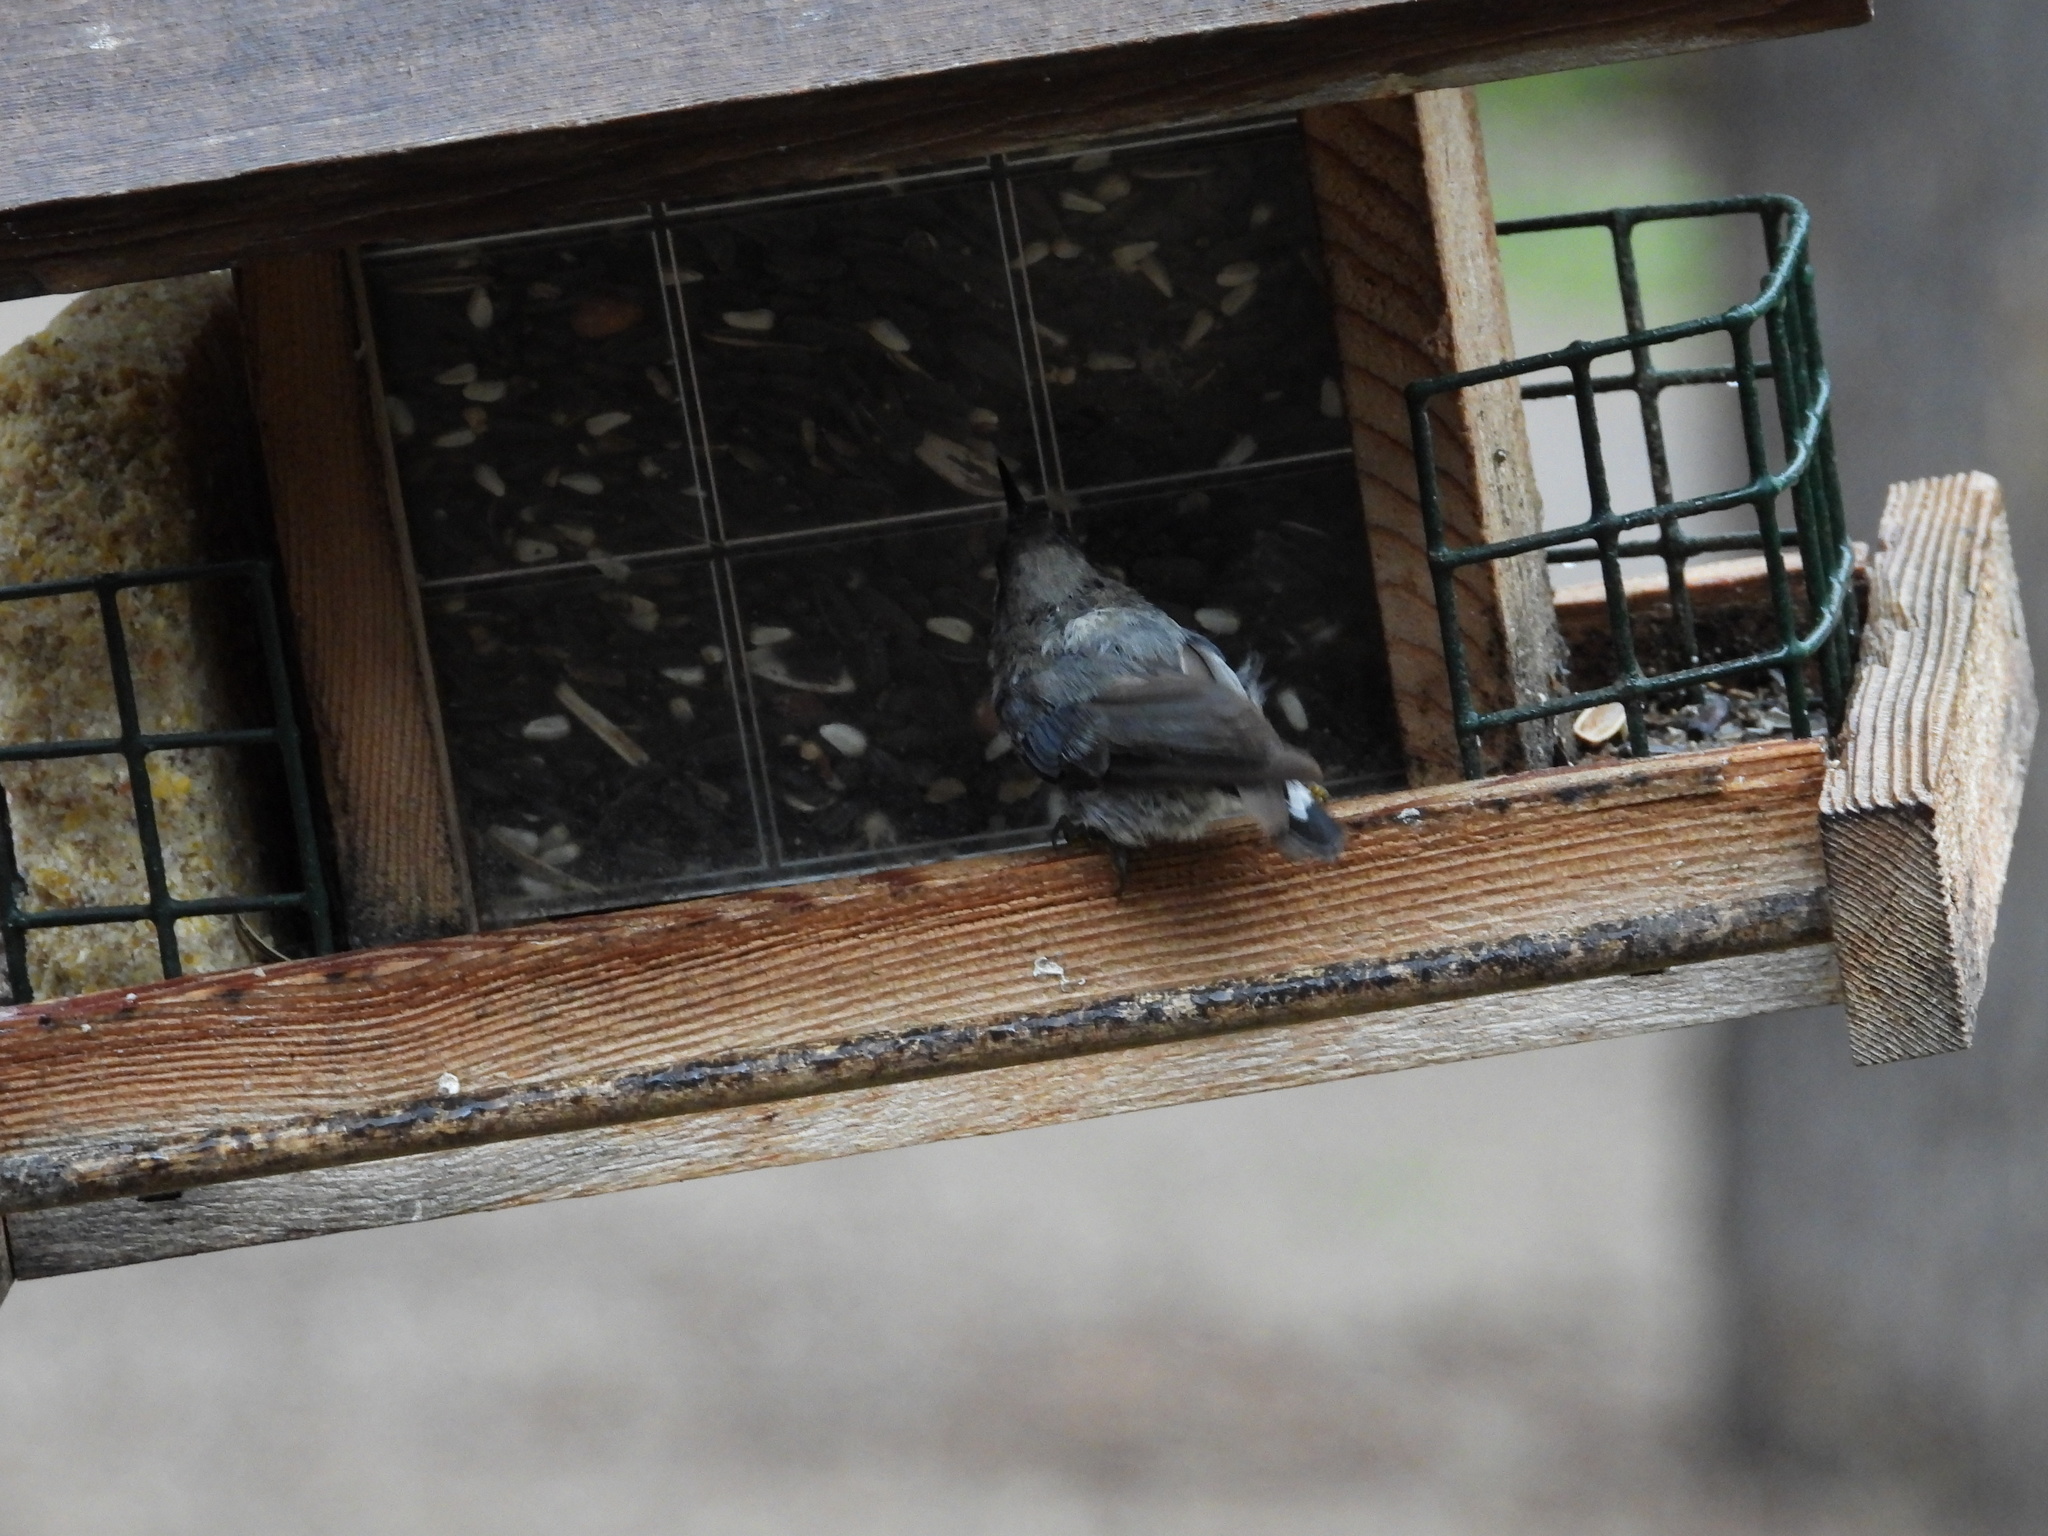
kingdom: Animalia
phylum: Chordata
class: Aves
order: Passeriformes
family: Sittidae
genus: Sitta
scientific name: Sitta pygmaea
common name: Pygmy nuthatch
